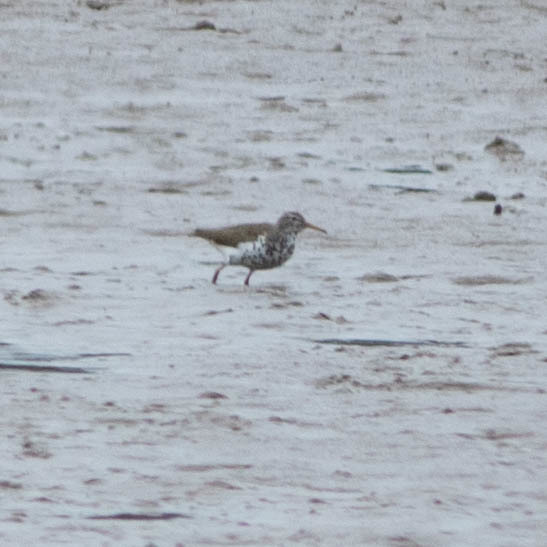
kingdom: Animalia
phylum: Chordata
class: Aves
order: Charadriiformes
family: Scolopacidae
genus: Actitis
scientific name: Actitis macularius
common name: Spotted sandpiper
